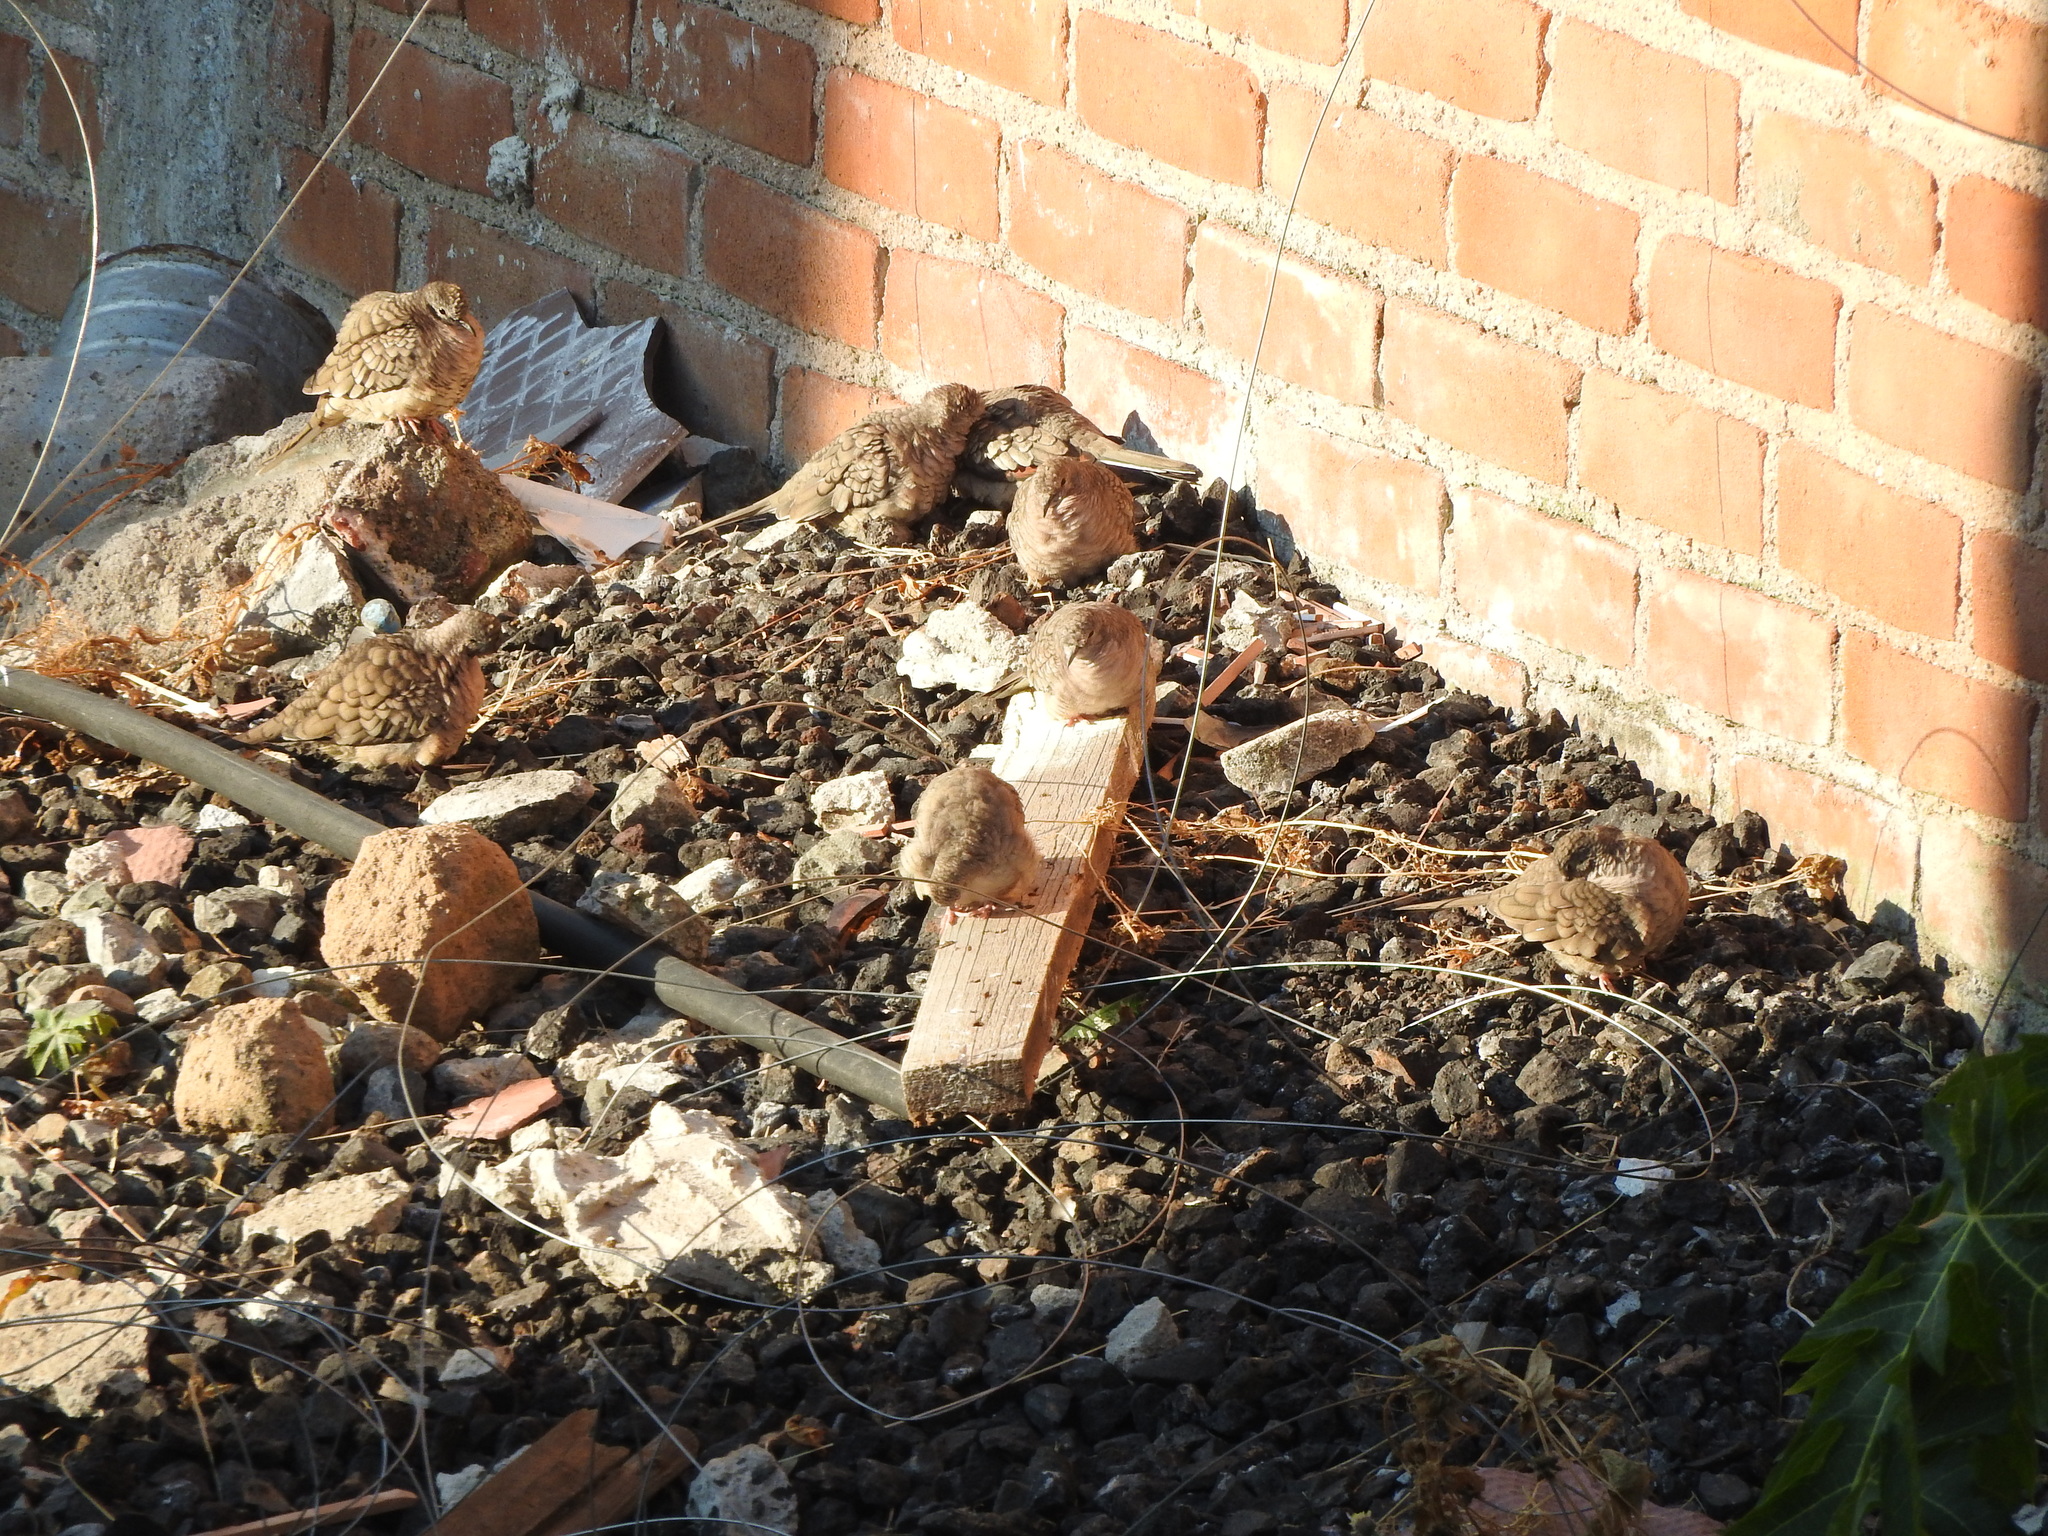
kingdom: Animalia
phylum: Chordata
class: Aves
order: Columbiformes
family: Columbidae
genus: Columbina
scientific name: Columbina inca
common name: Inca dove
